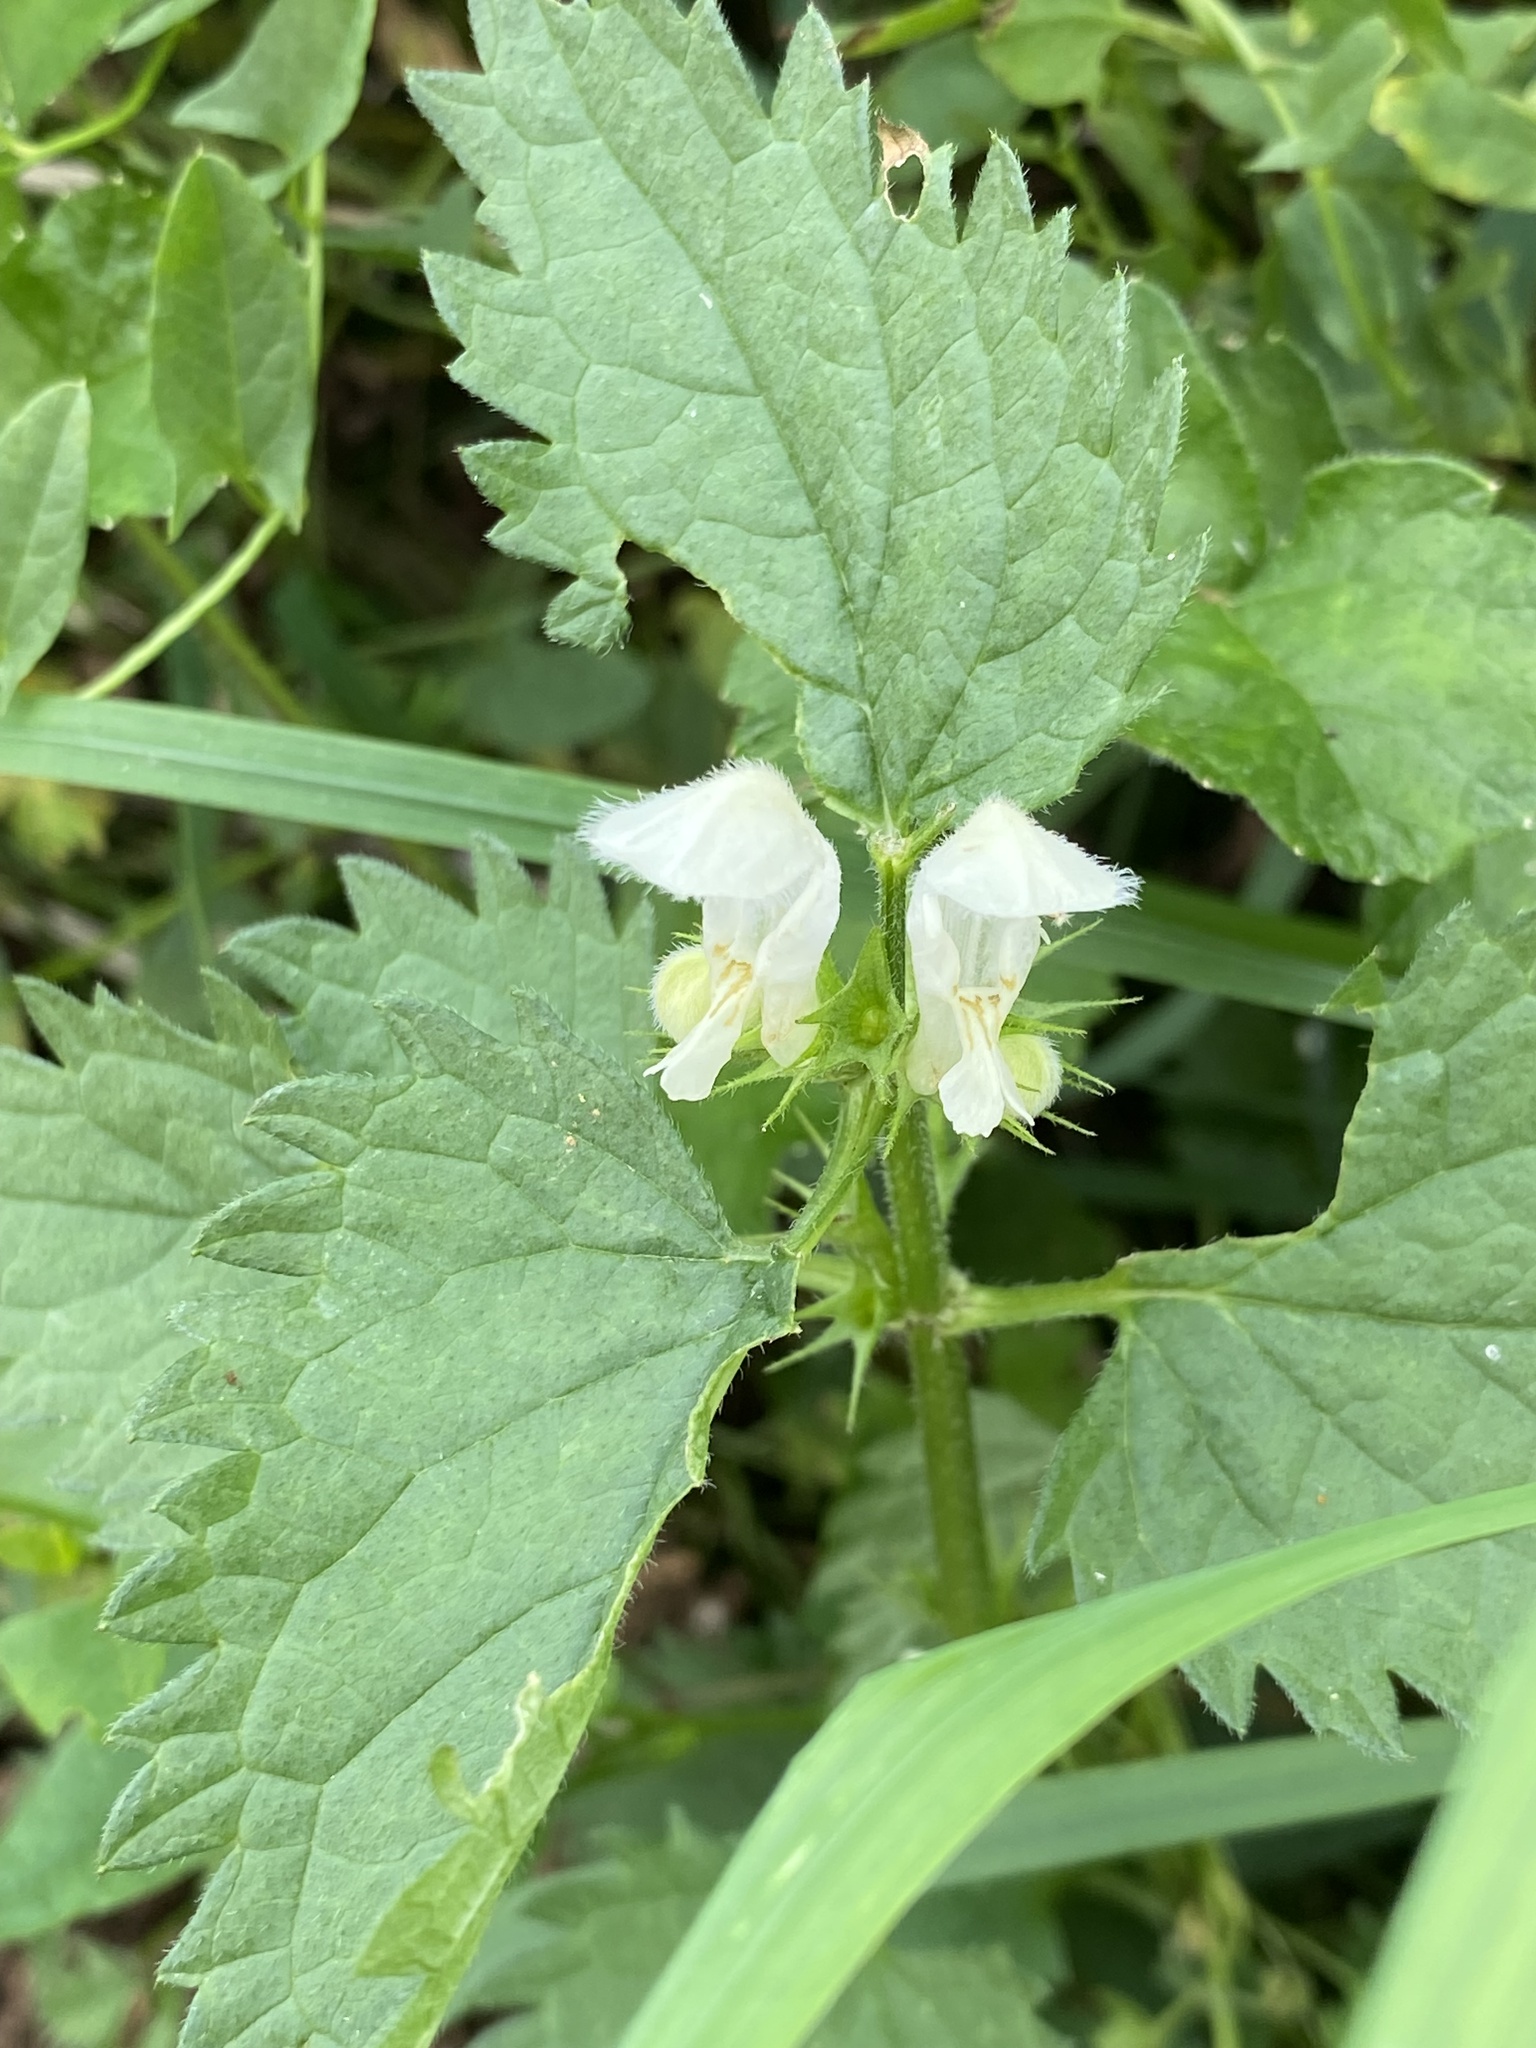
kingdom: Plantae
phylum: Tracheophyta
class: Magnoliopsida
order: Lamiales
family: Lamiaceae
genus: Lamium
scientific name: Lamium album
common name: White dead-nettle
